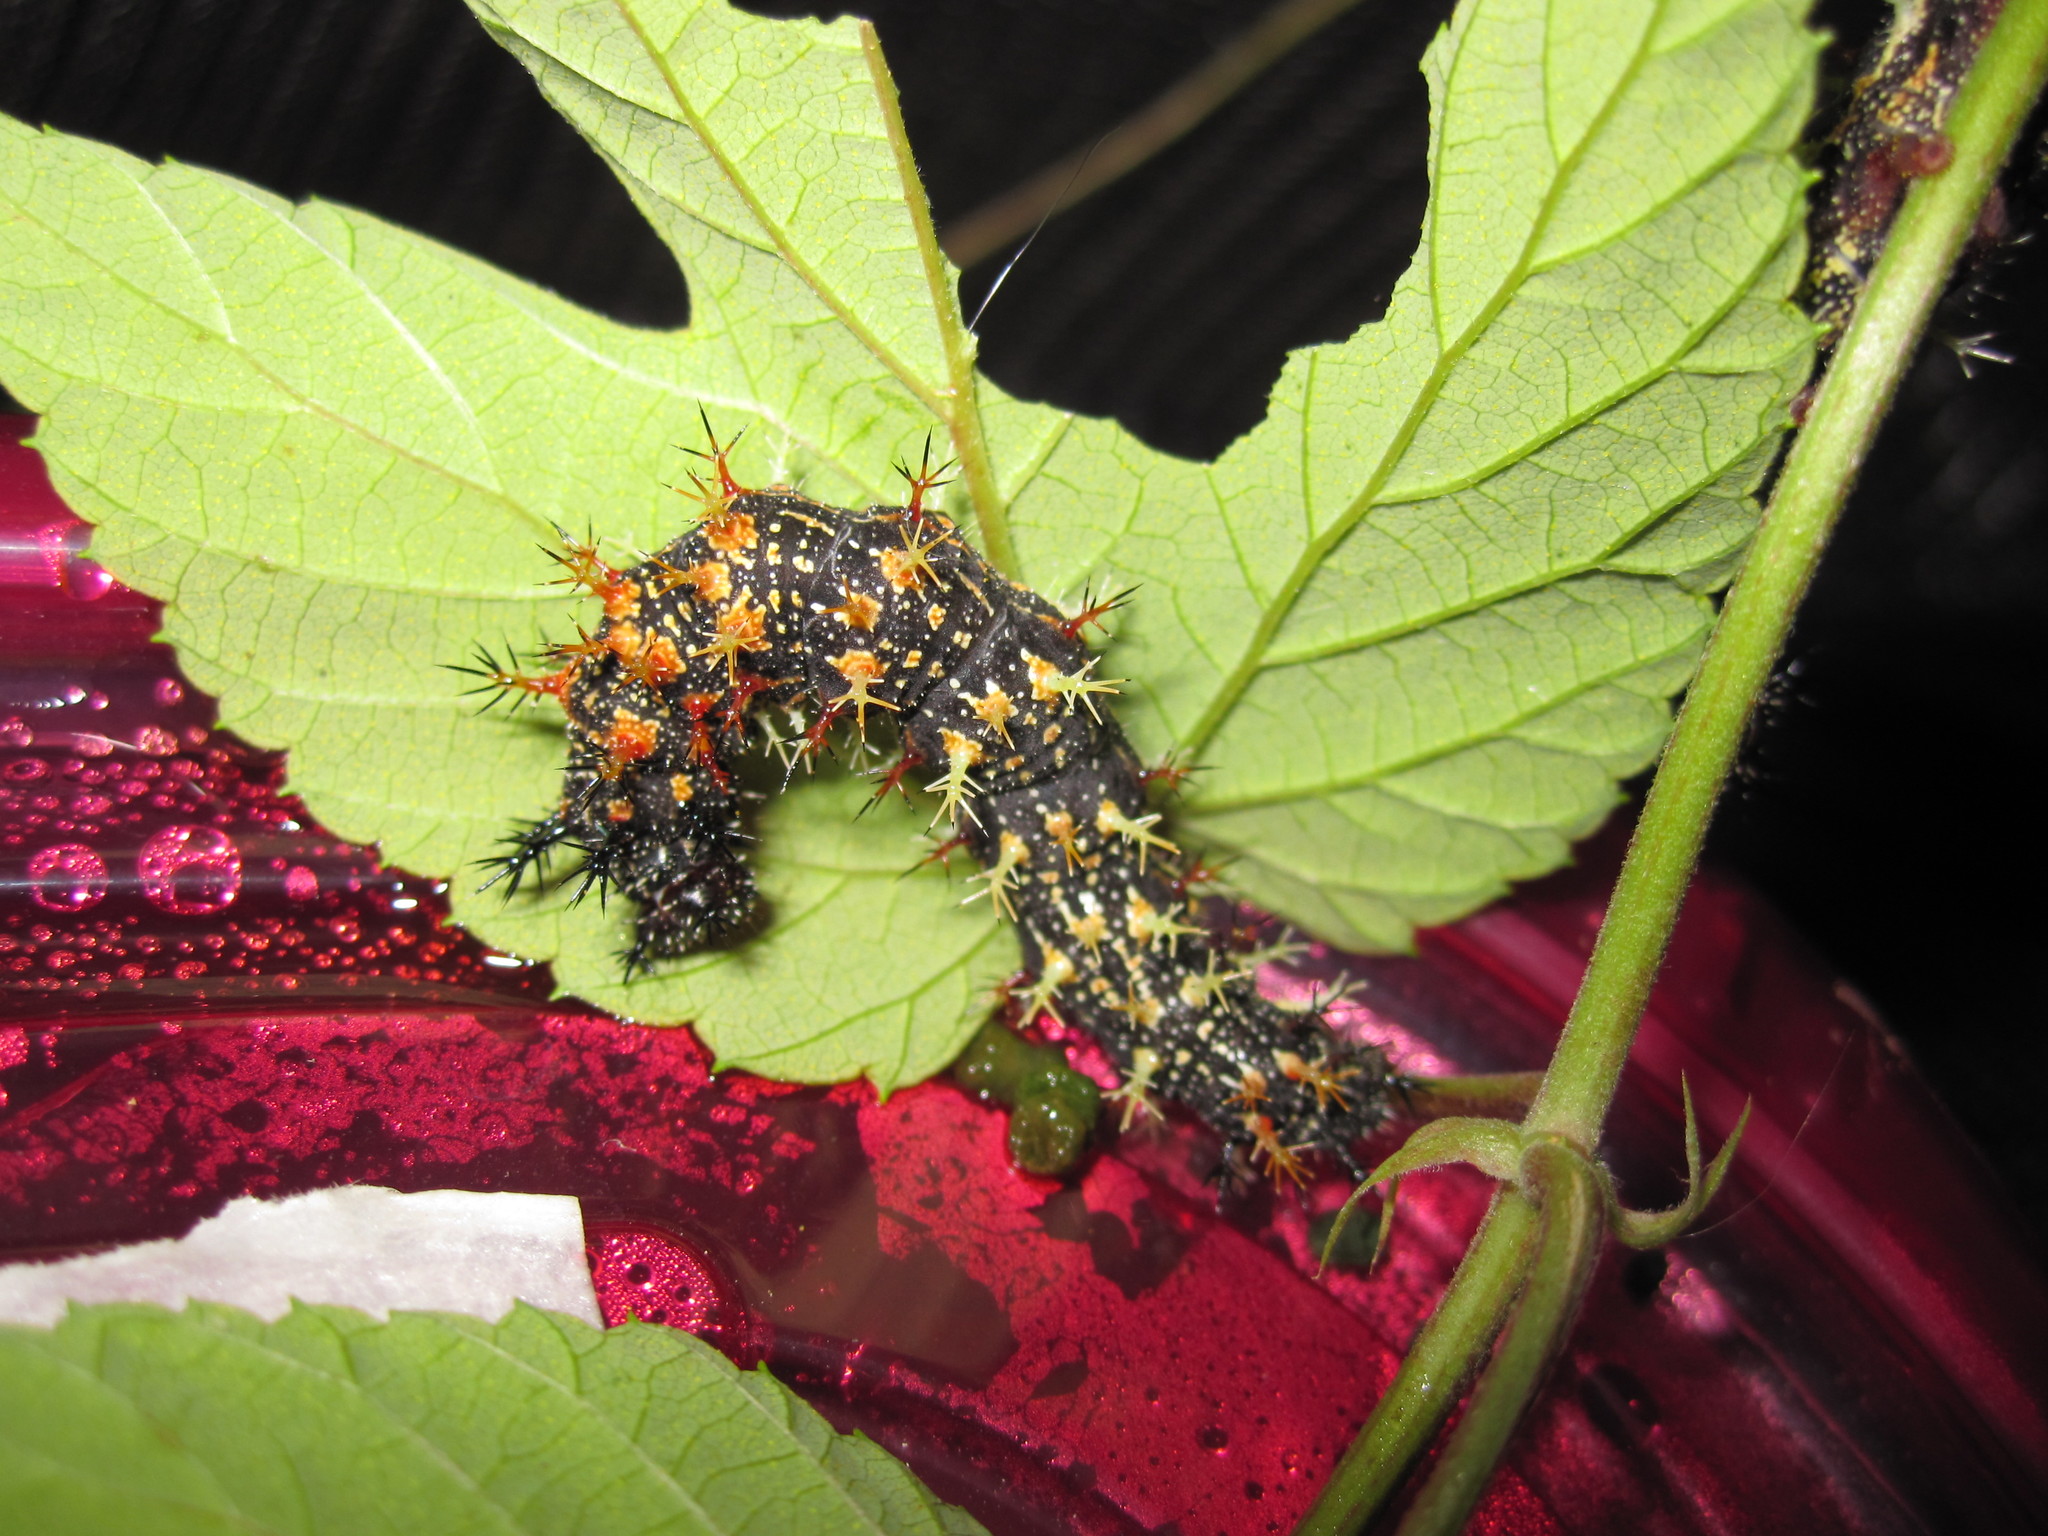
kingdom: Animalia
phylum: Arthropoda
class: Insecta
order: Lepidoptera
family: Nymphalidae
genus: Polygonia
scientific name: Polygonia interrogationis
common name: Question mark
